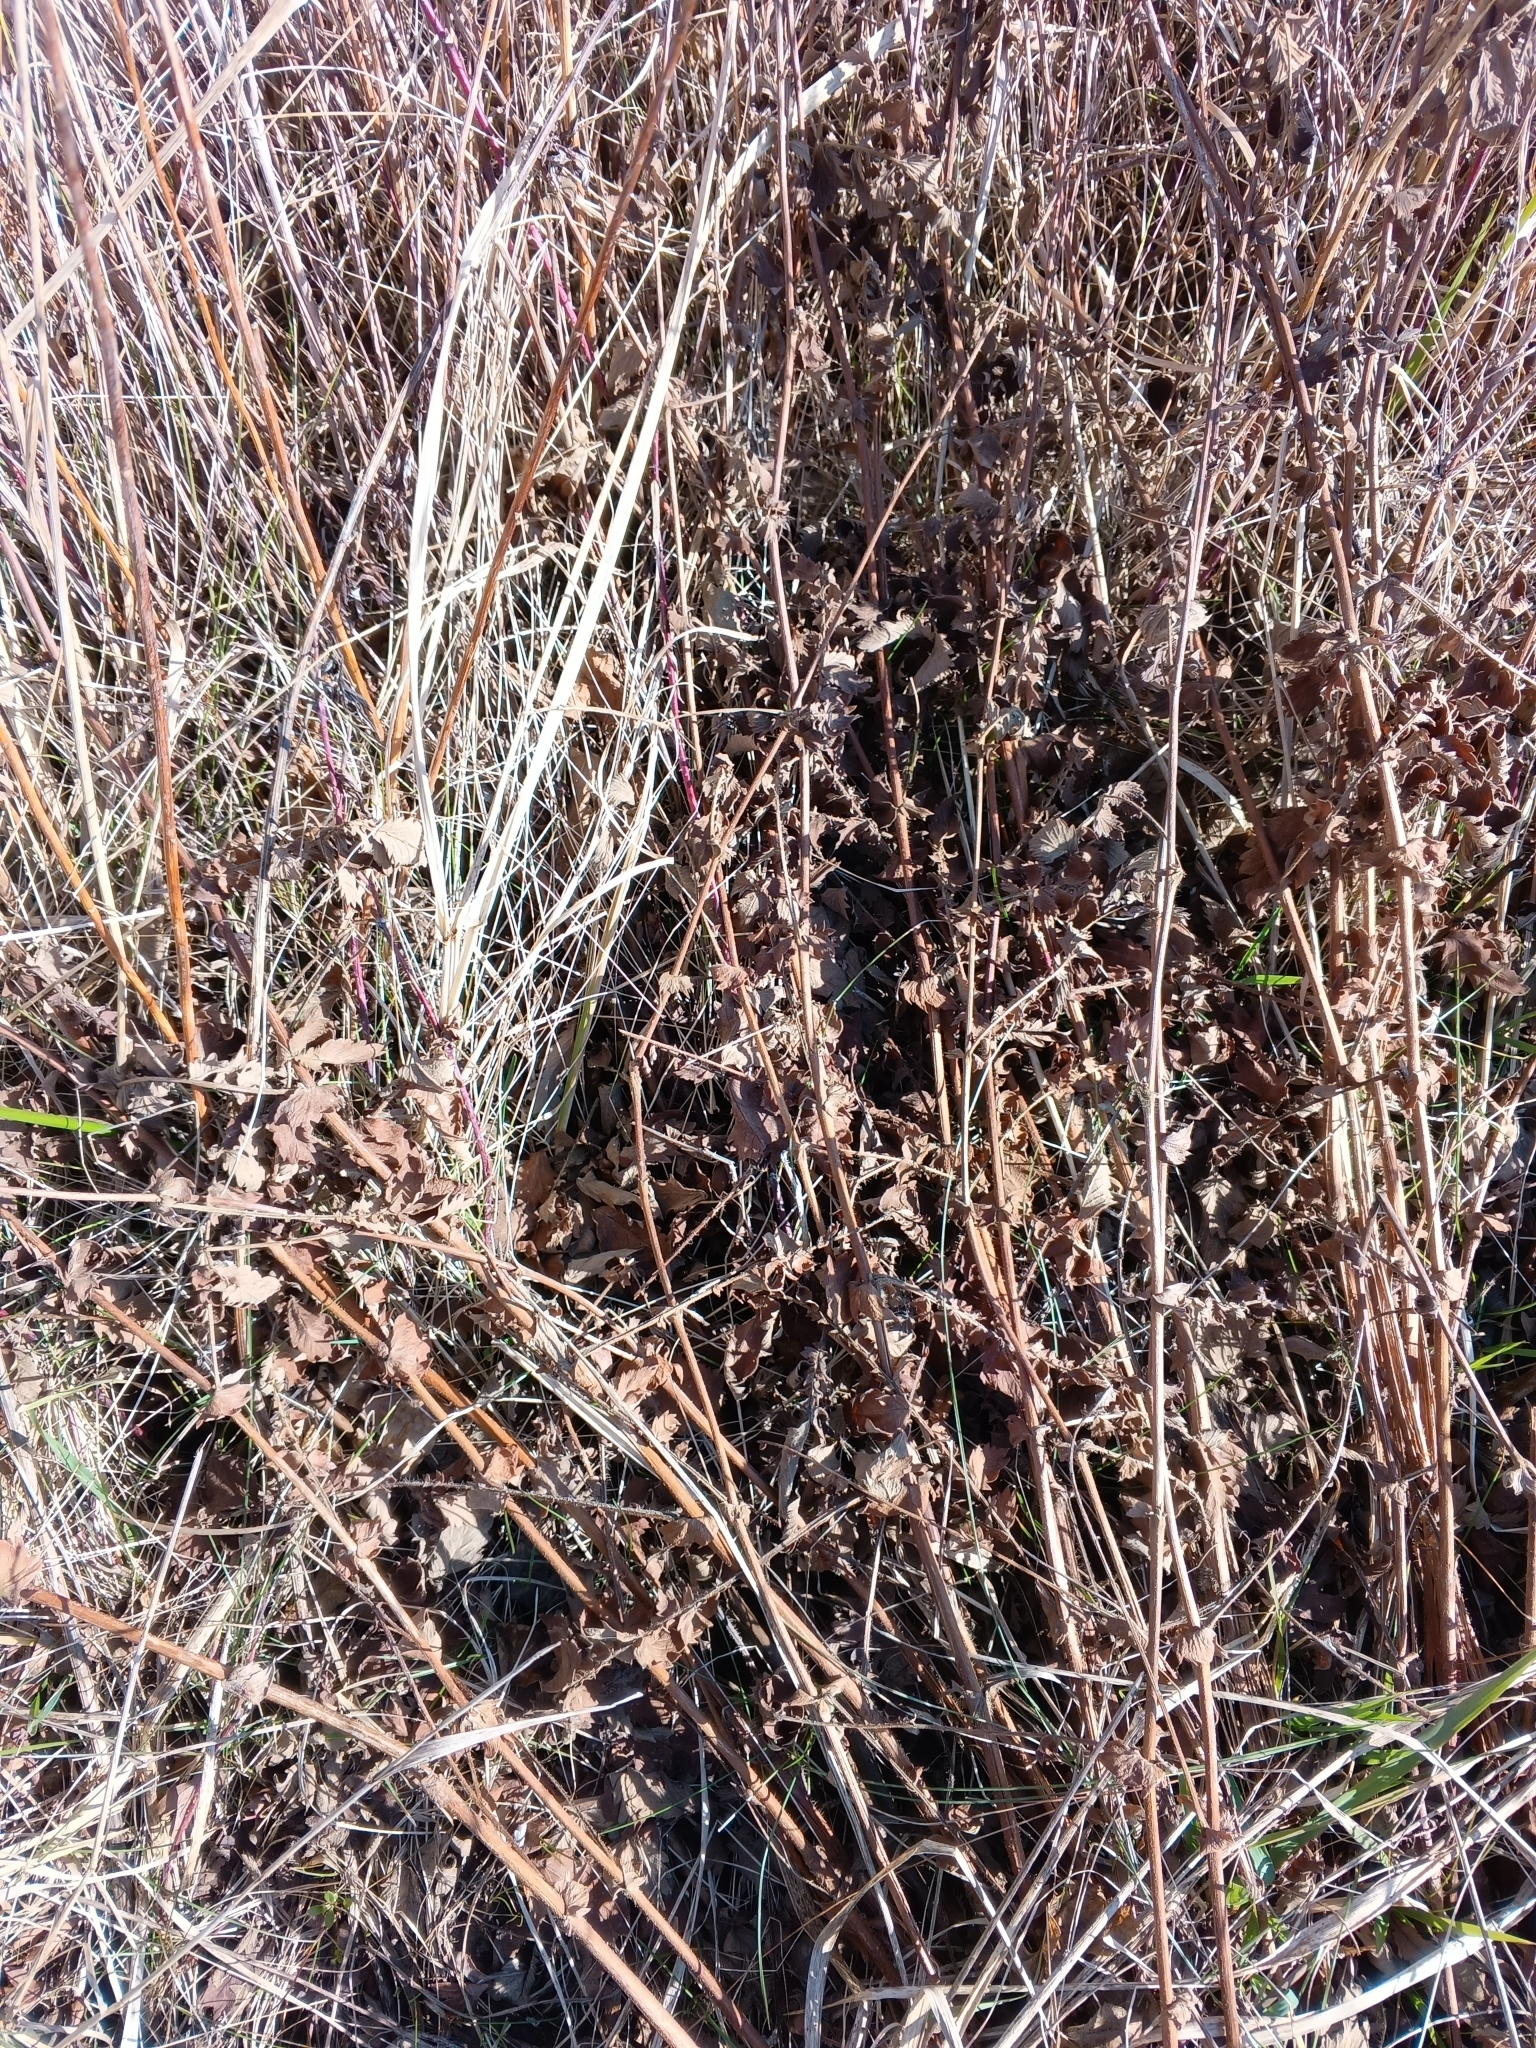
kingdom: Plantae
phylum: Tracheophyta
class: Magnoliopsida
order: Rosales
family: Rosaceae
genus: Agrimonia
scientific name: Agrimonia eupatoria
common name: Agrimony
